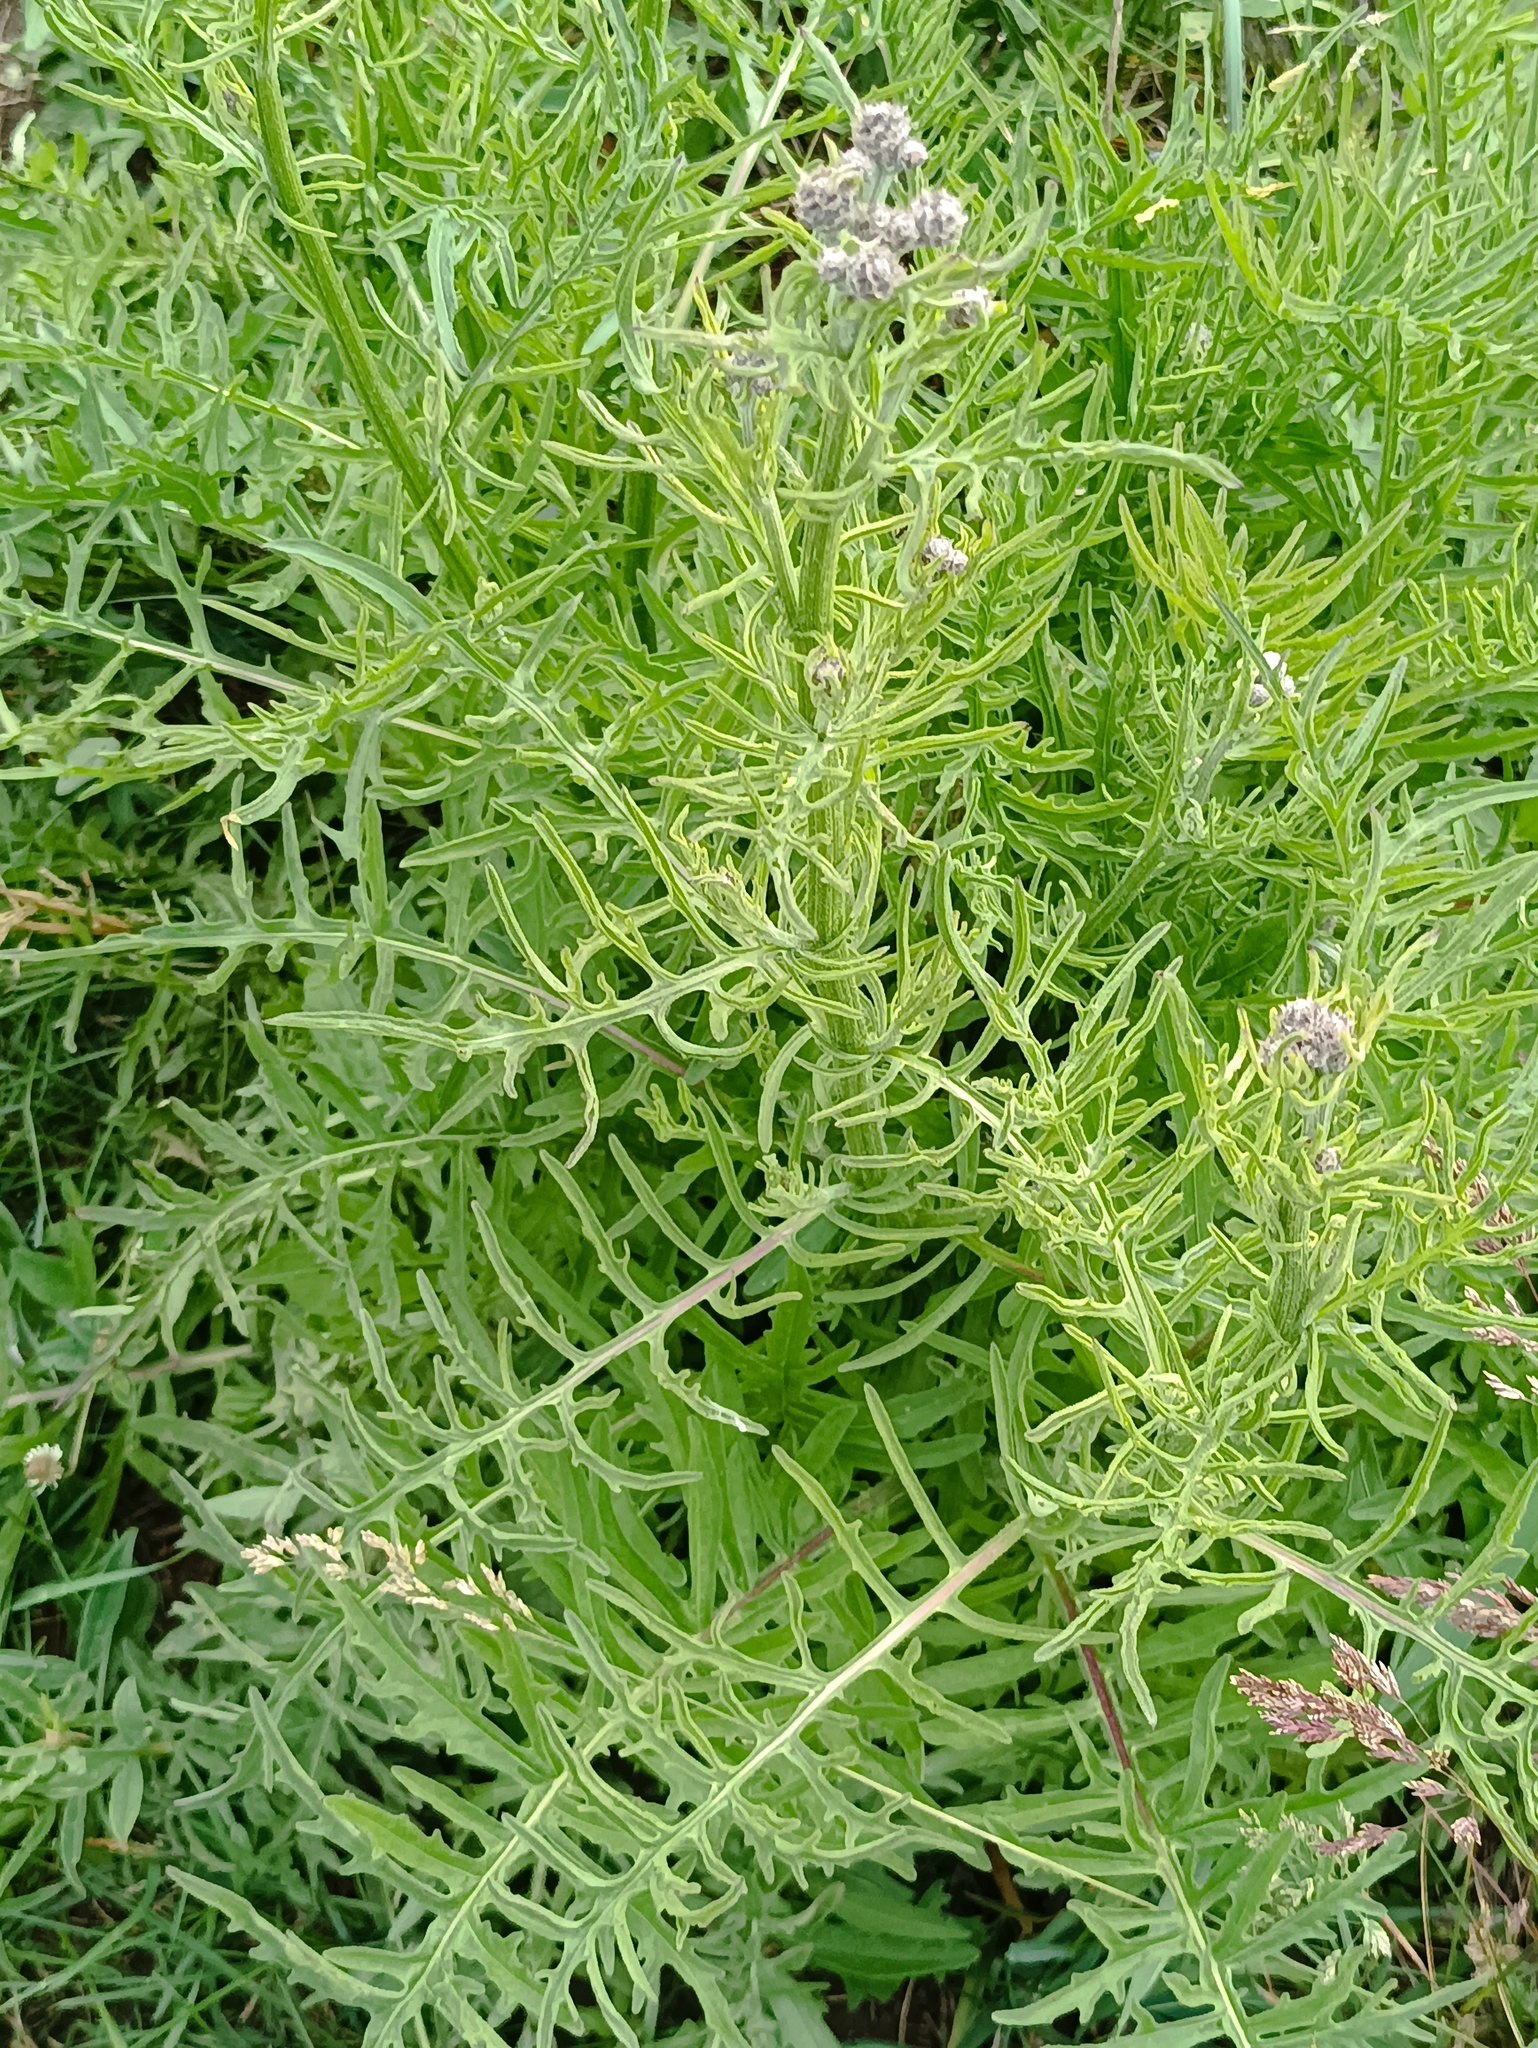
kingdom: Plantae
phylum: Tracheophyta
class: Magnoliopsida
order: Asterales
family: Asteraceae
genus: Centaurea
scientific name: Centaurea scabiosa
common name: Greater knapweed
